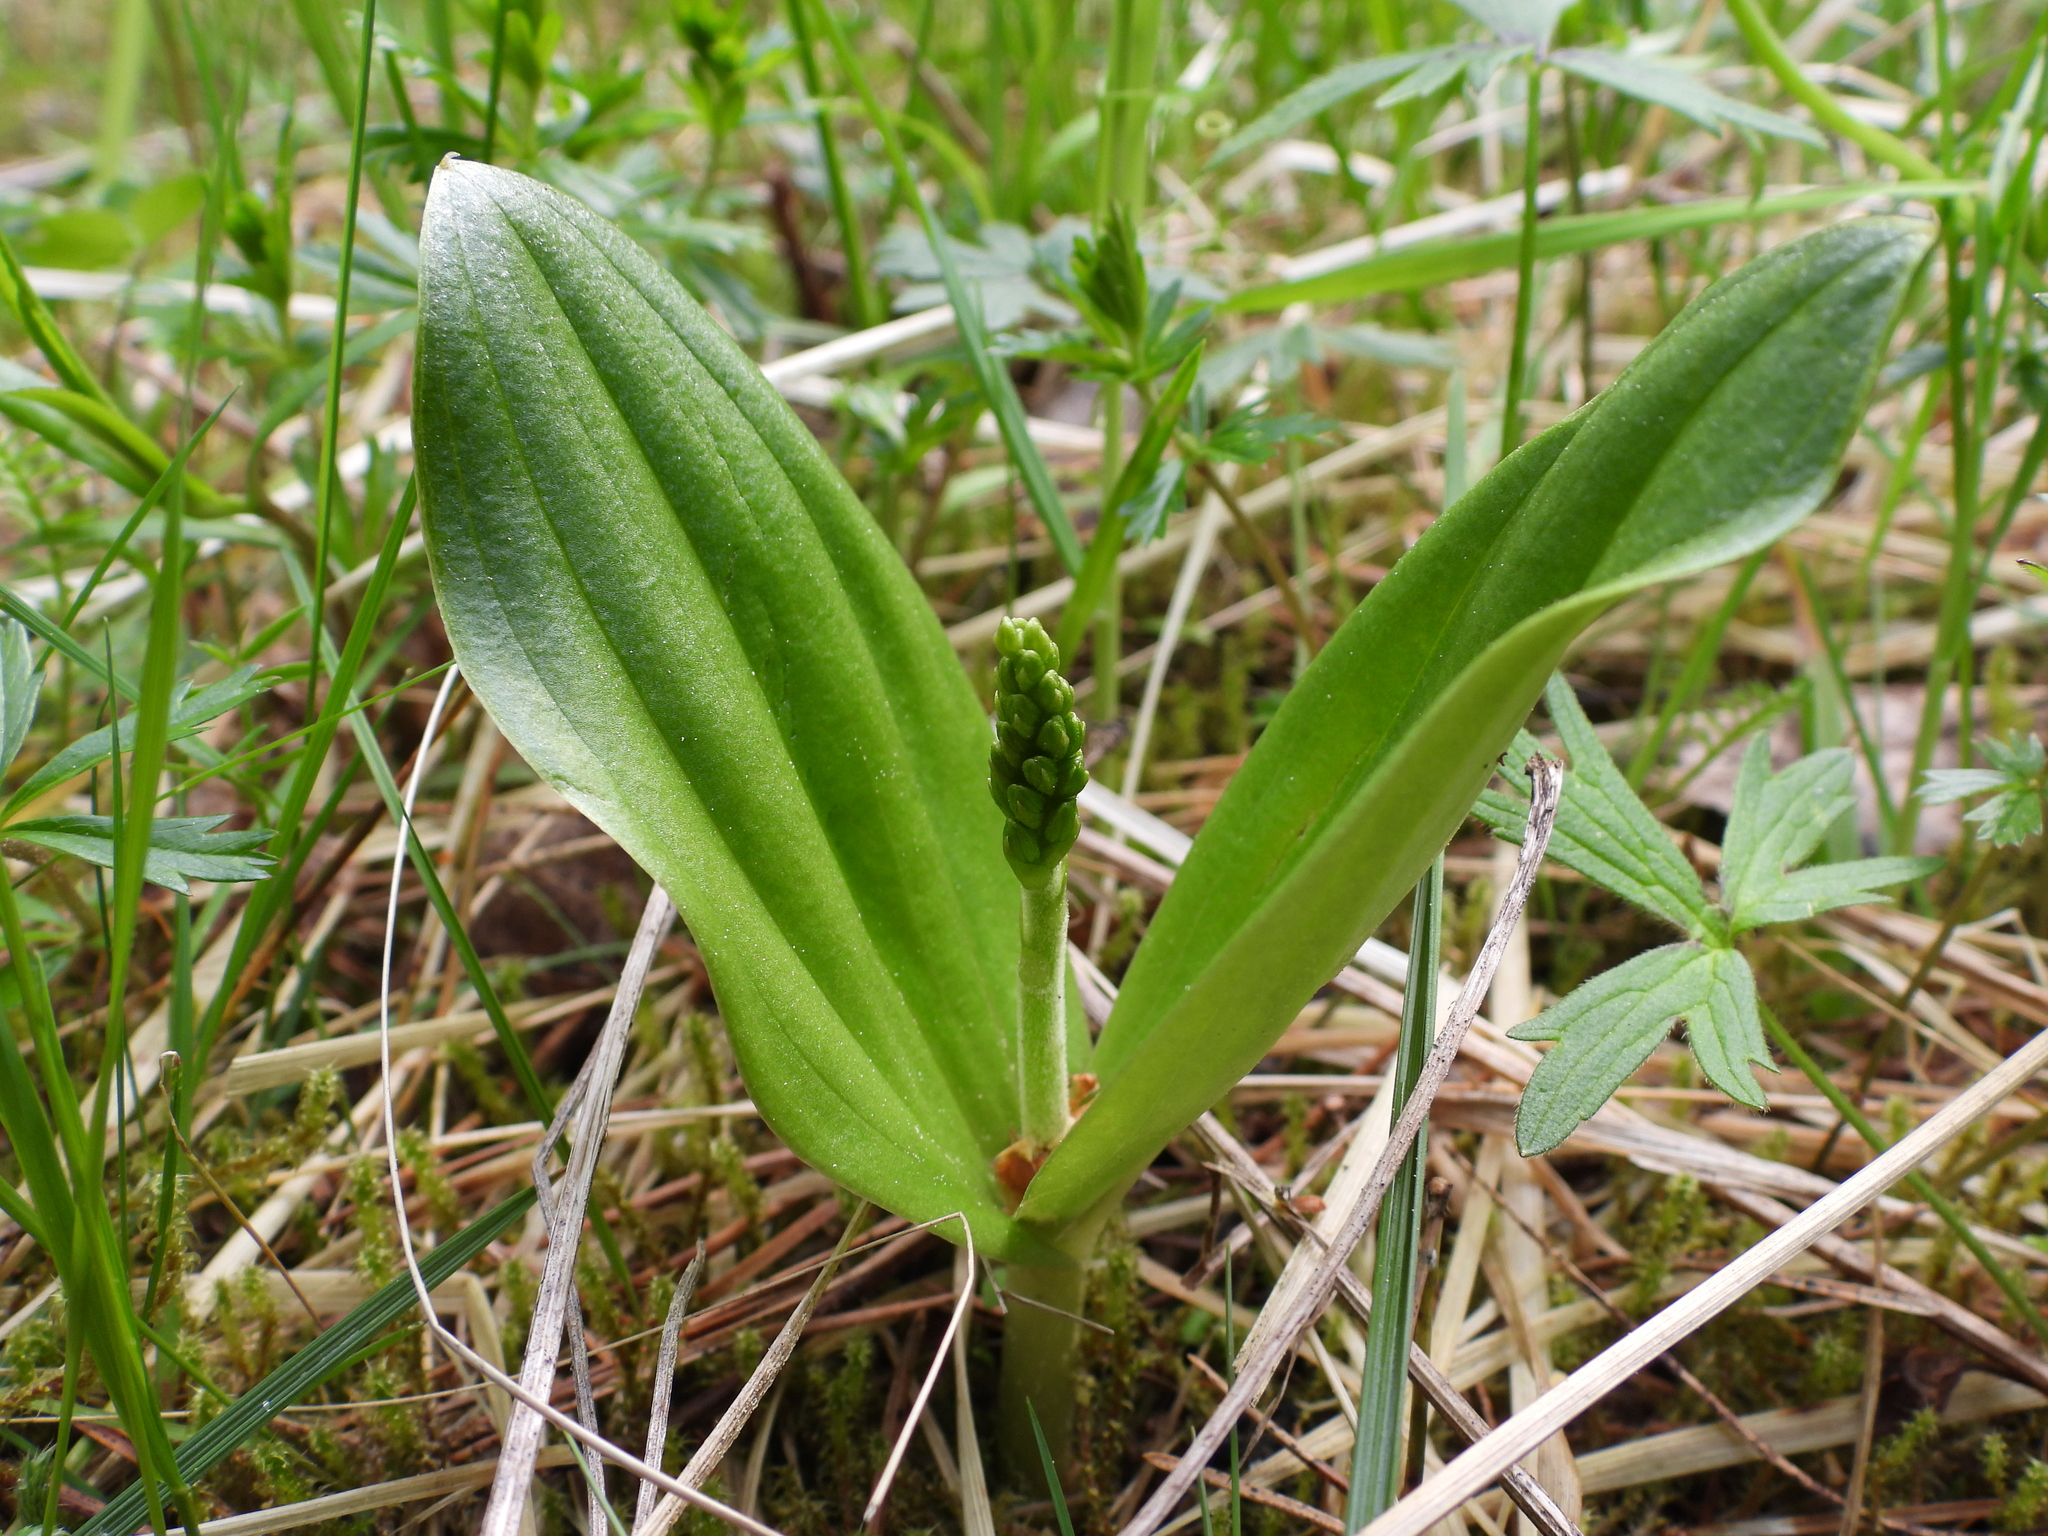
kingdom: Plantae
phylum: Tracheophyta
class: Liliopsida
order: Asparagales
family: Orchidaceae
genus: Neottia
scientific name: Neottia ovata
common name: Common twayblade
